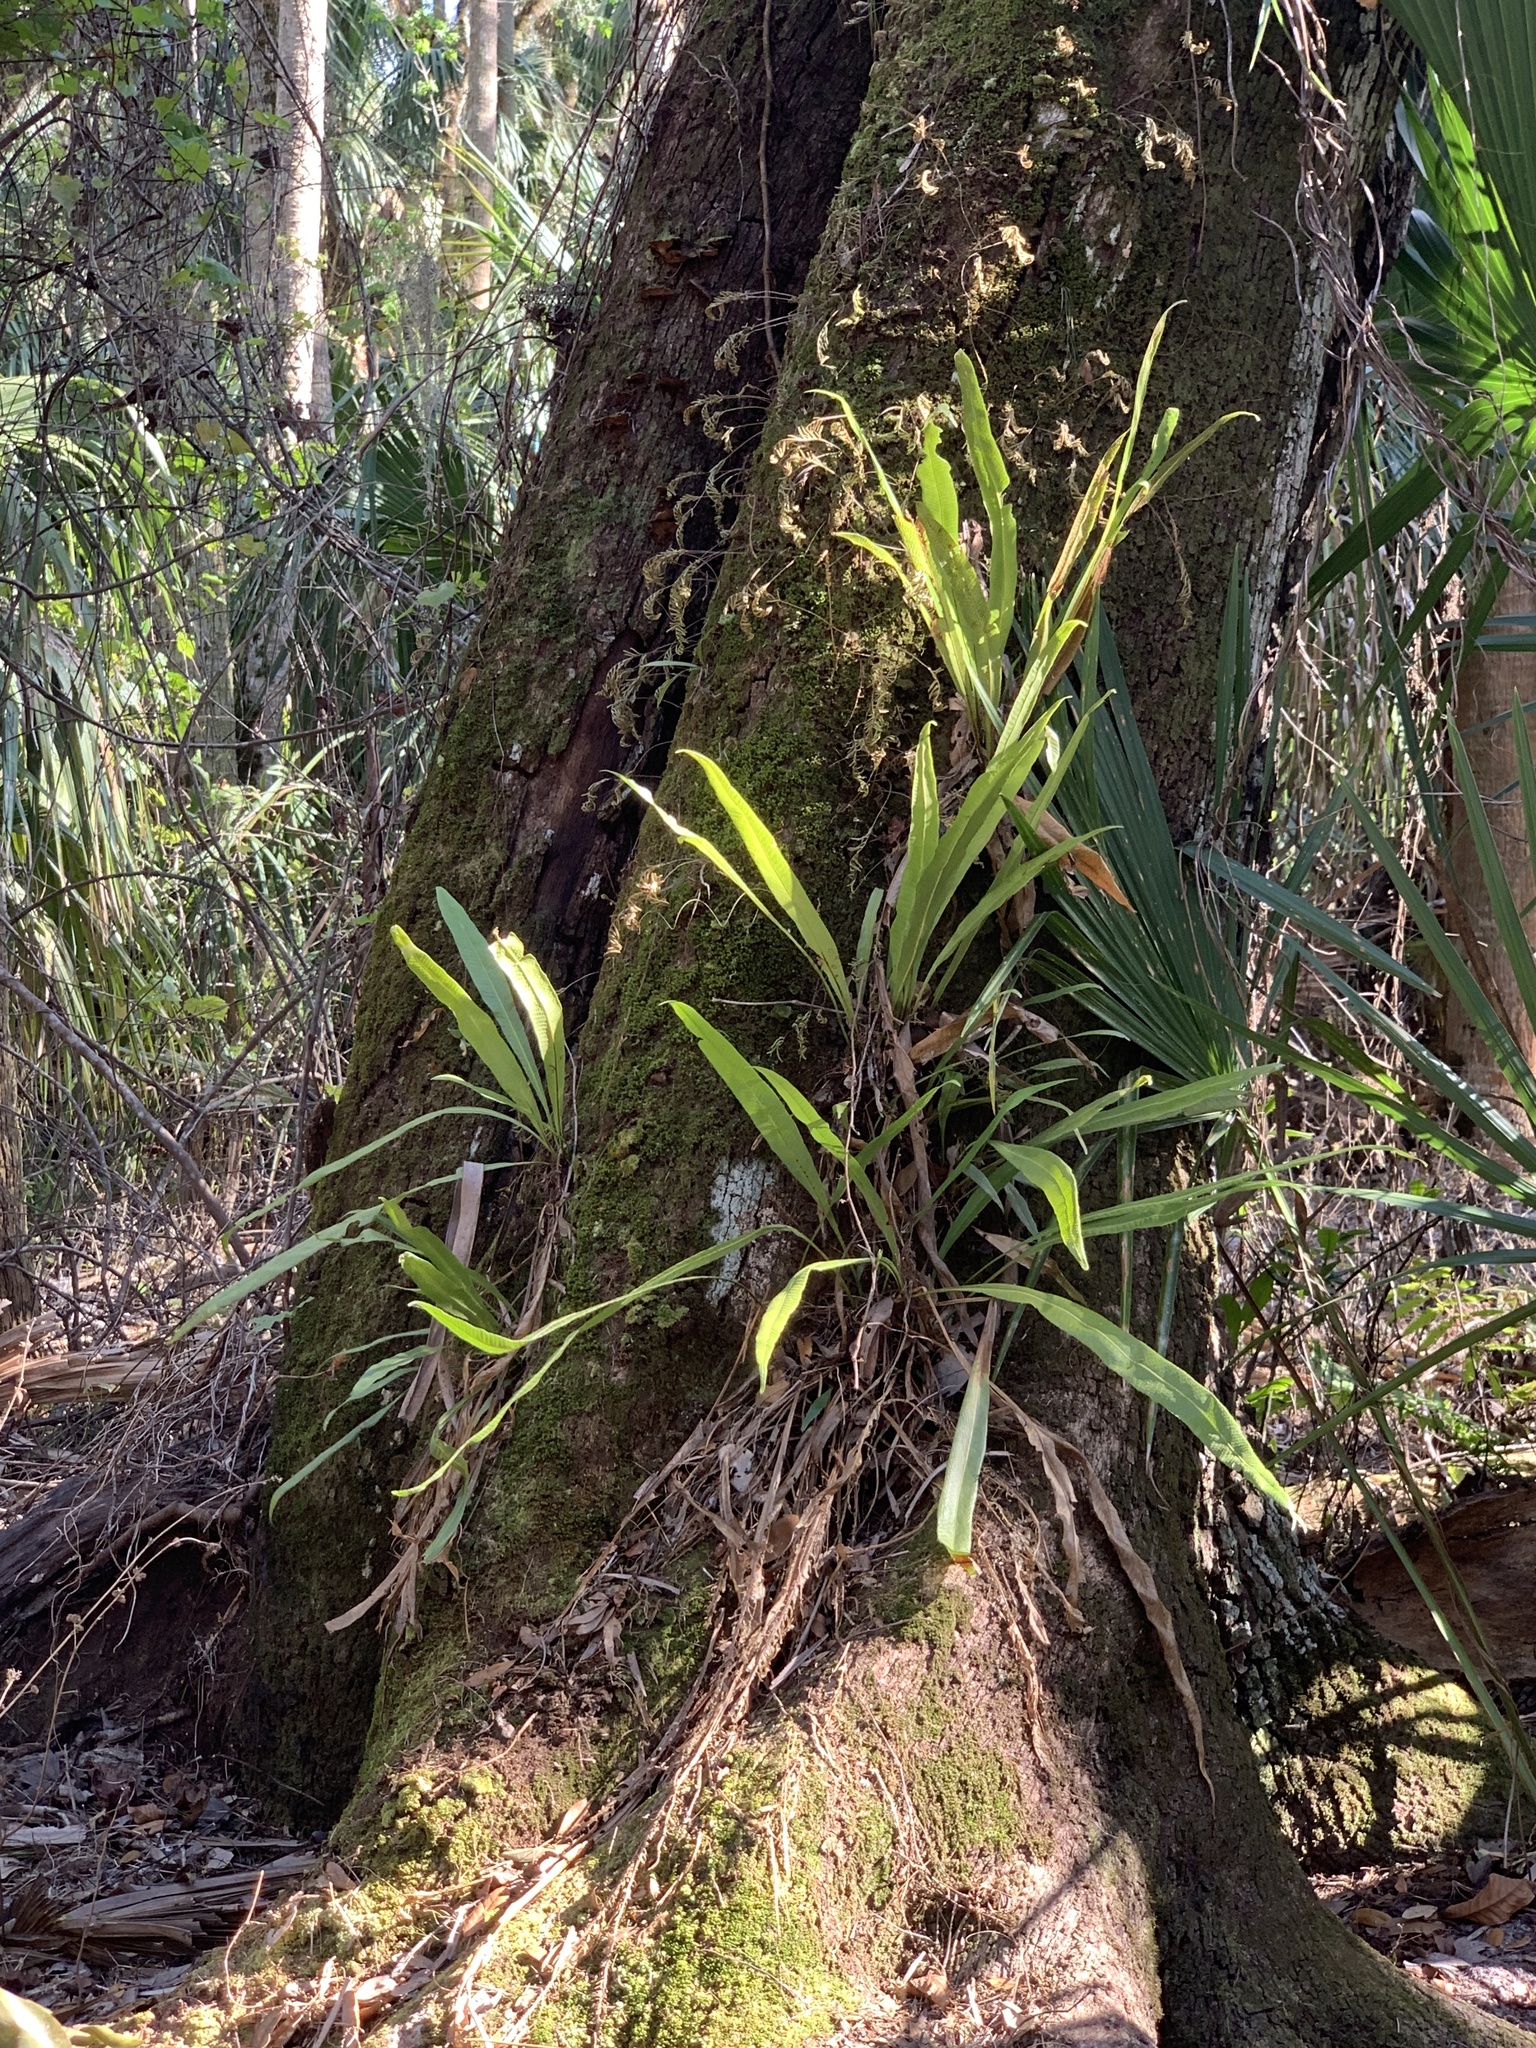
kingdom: Plantae
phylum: Tracheophyta
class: Polypodiopsida
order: Polypodiales
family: Polypodiaceae
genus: Campyloneurum
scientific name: Campyloneurum phyllitidis
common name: Cow-tongue fern
